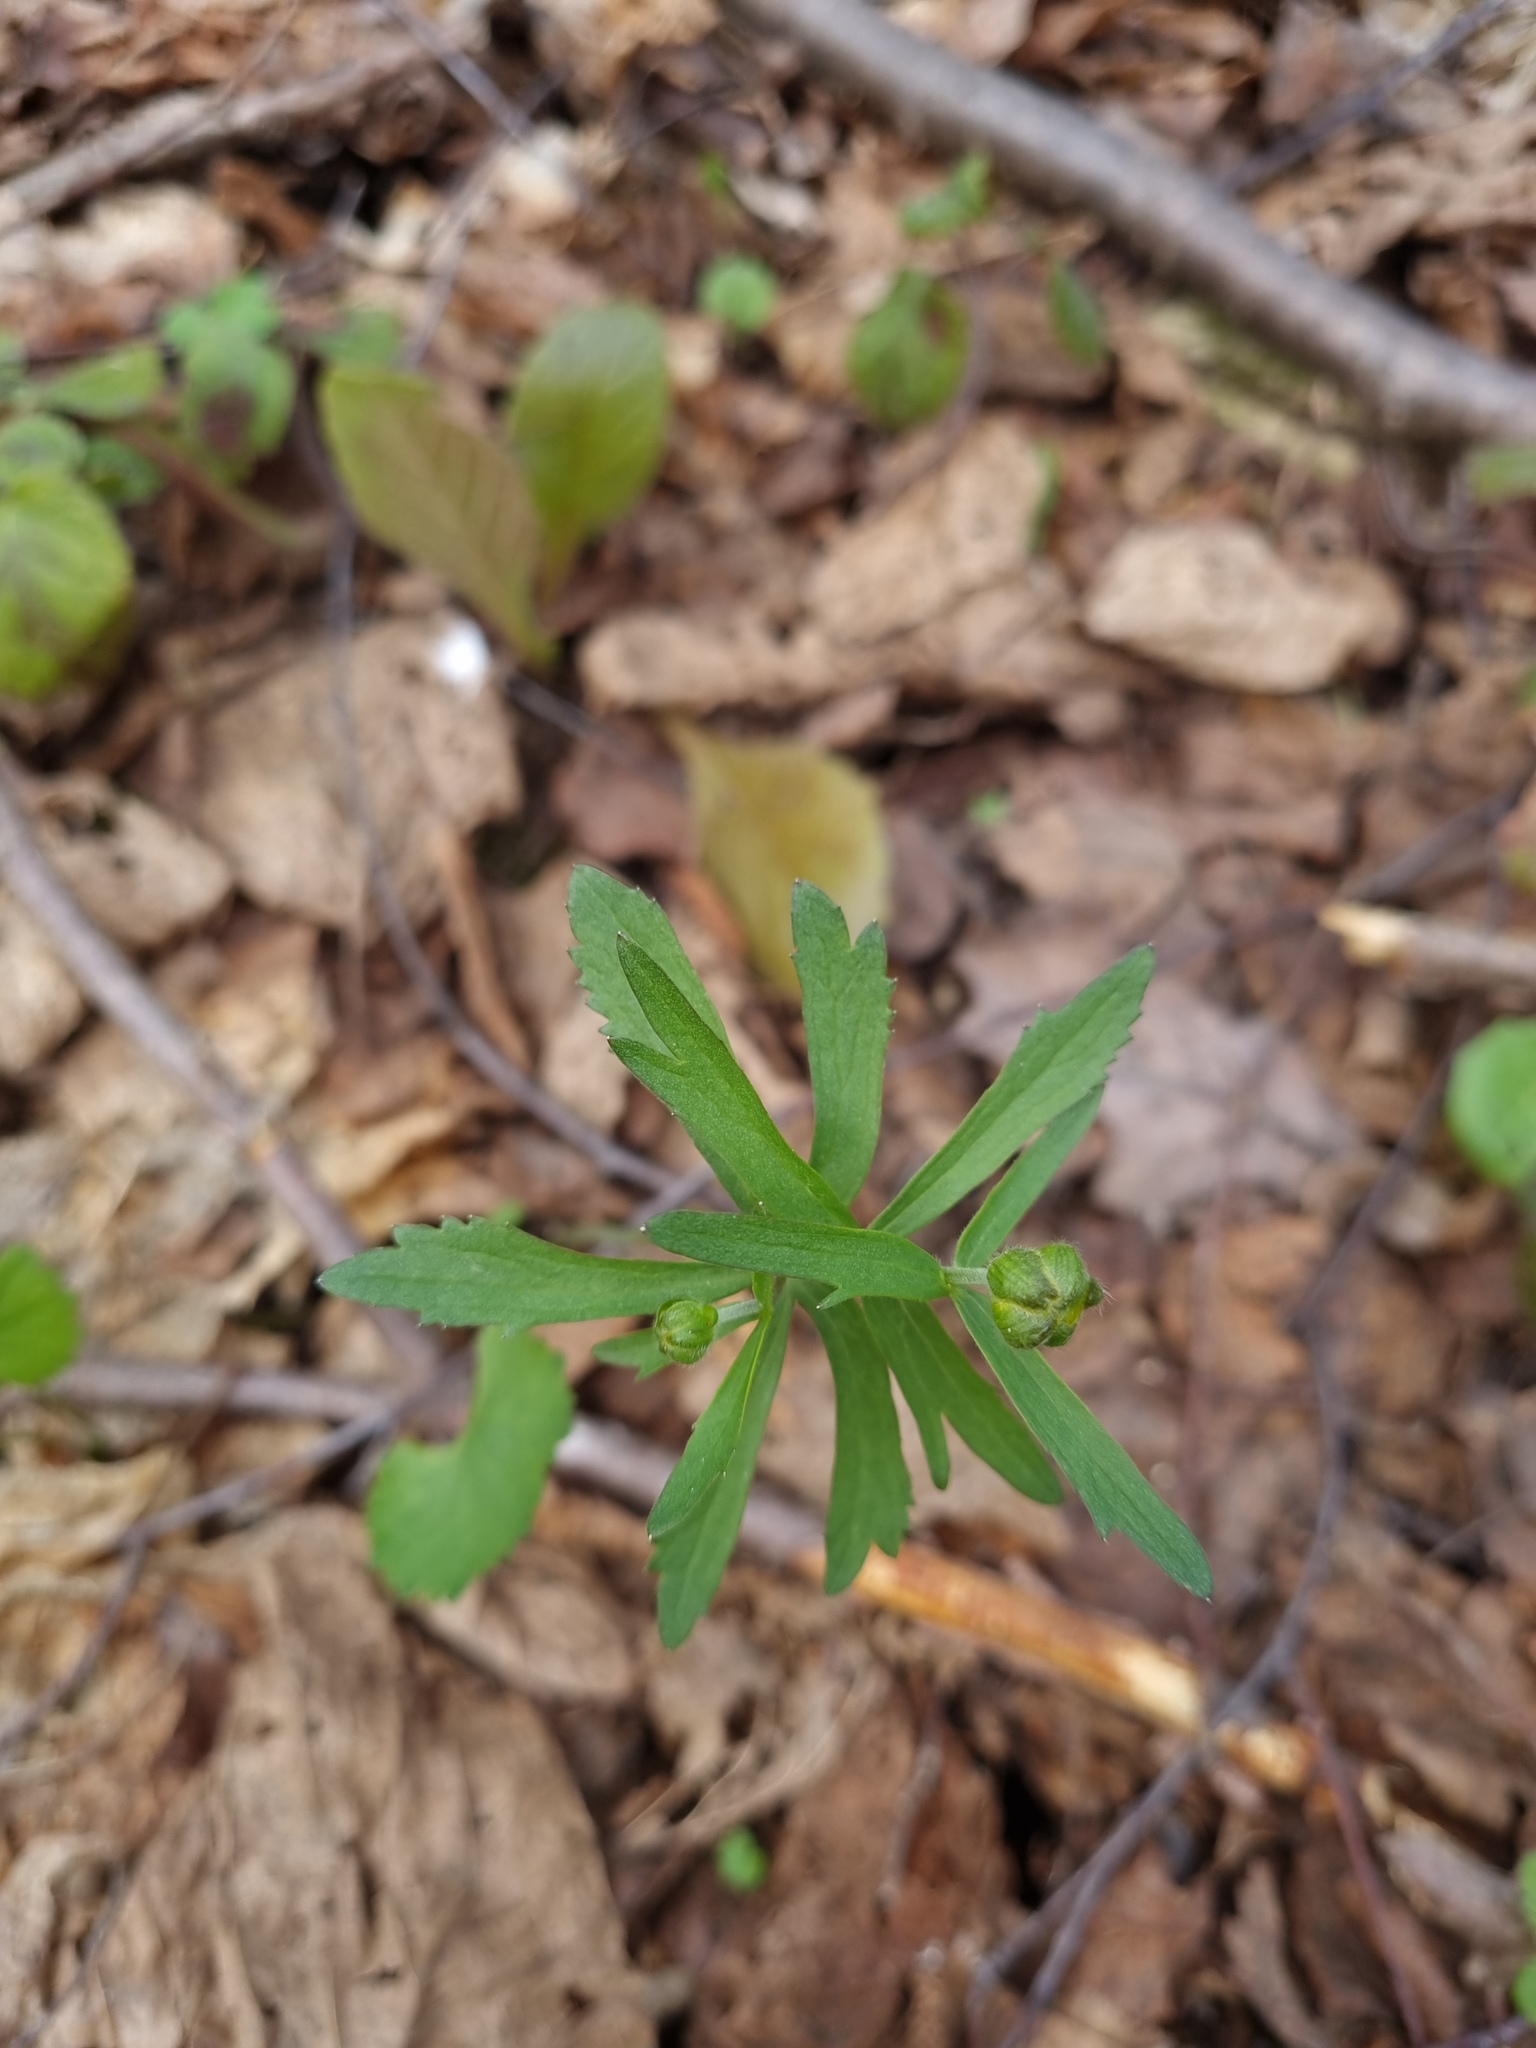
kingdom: Plantae
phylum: Tracheophyta
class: Magnoliopsida
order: Ranunculales
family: Ranunculaceae
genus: Ranunculus
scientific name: Ranunculus cassubicus
